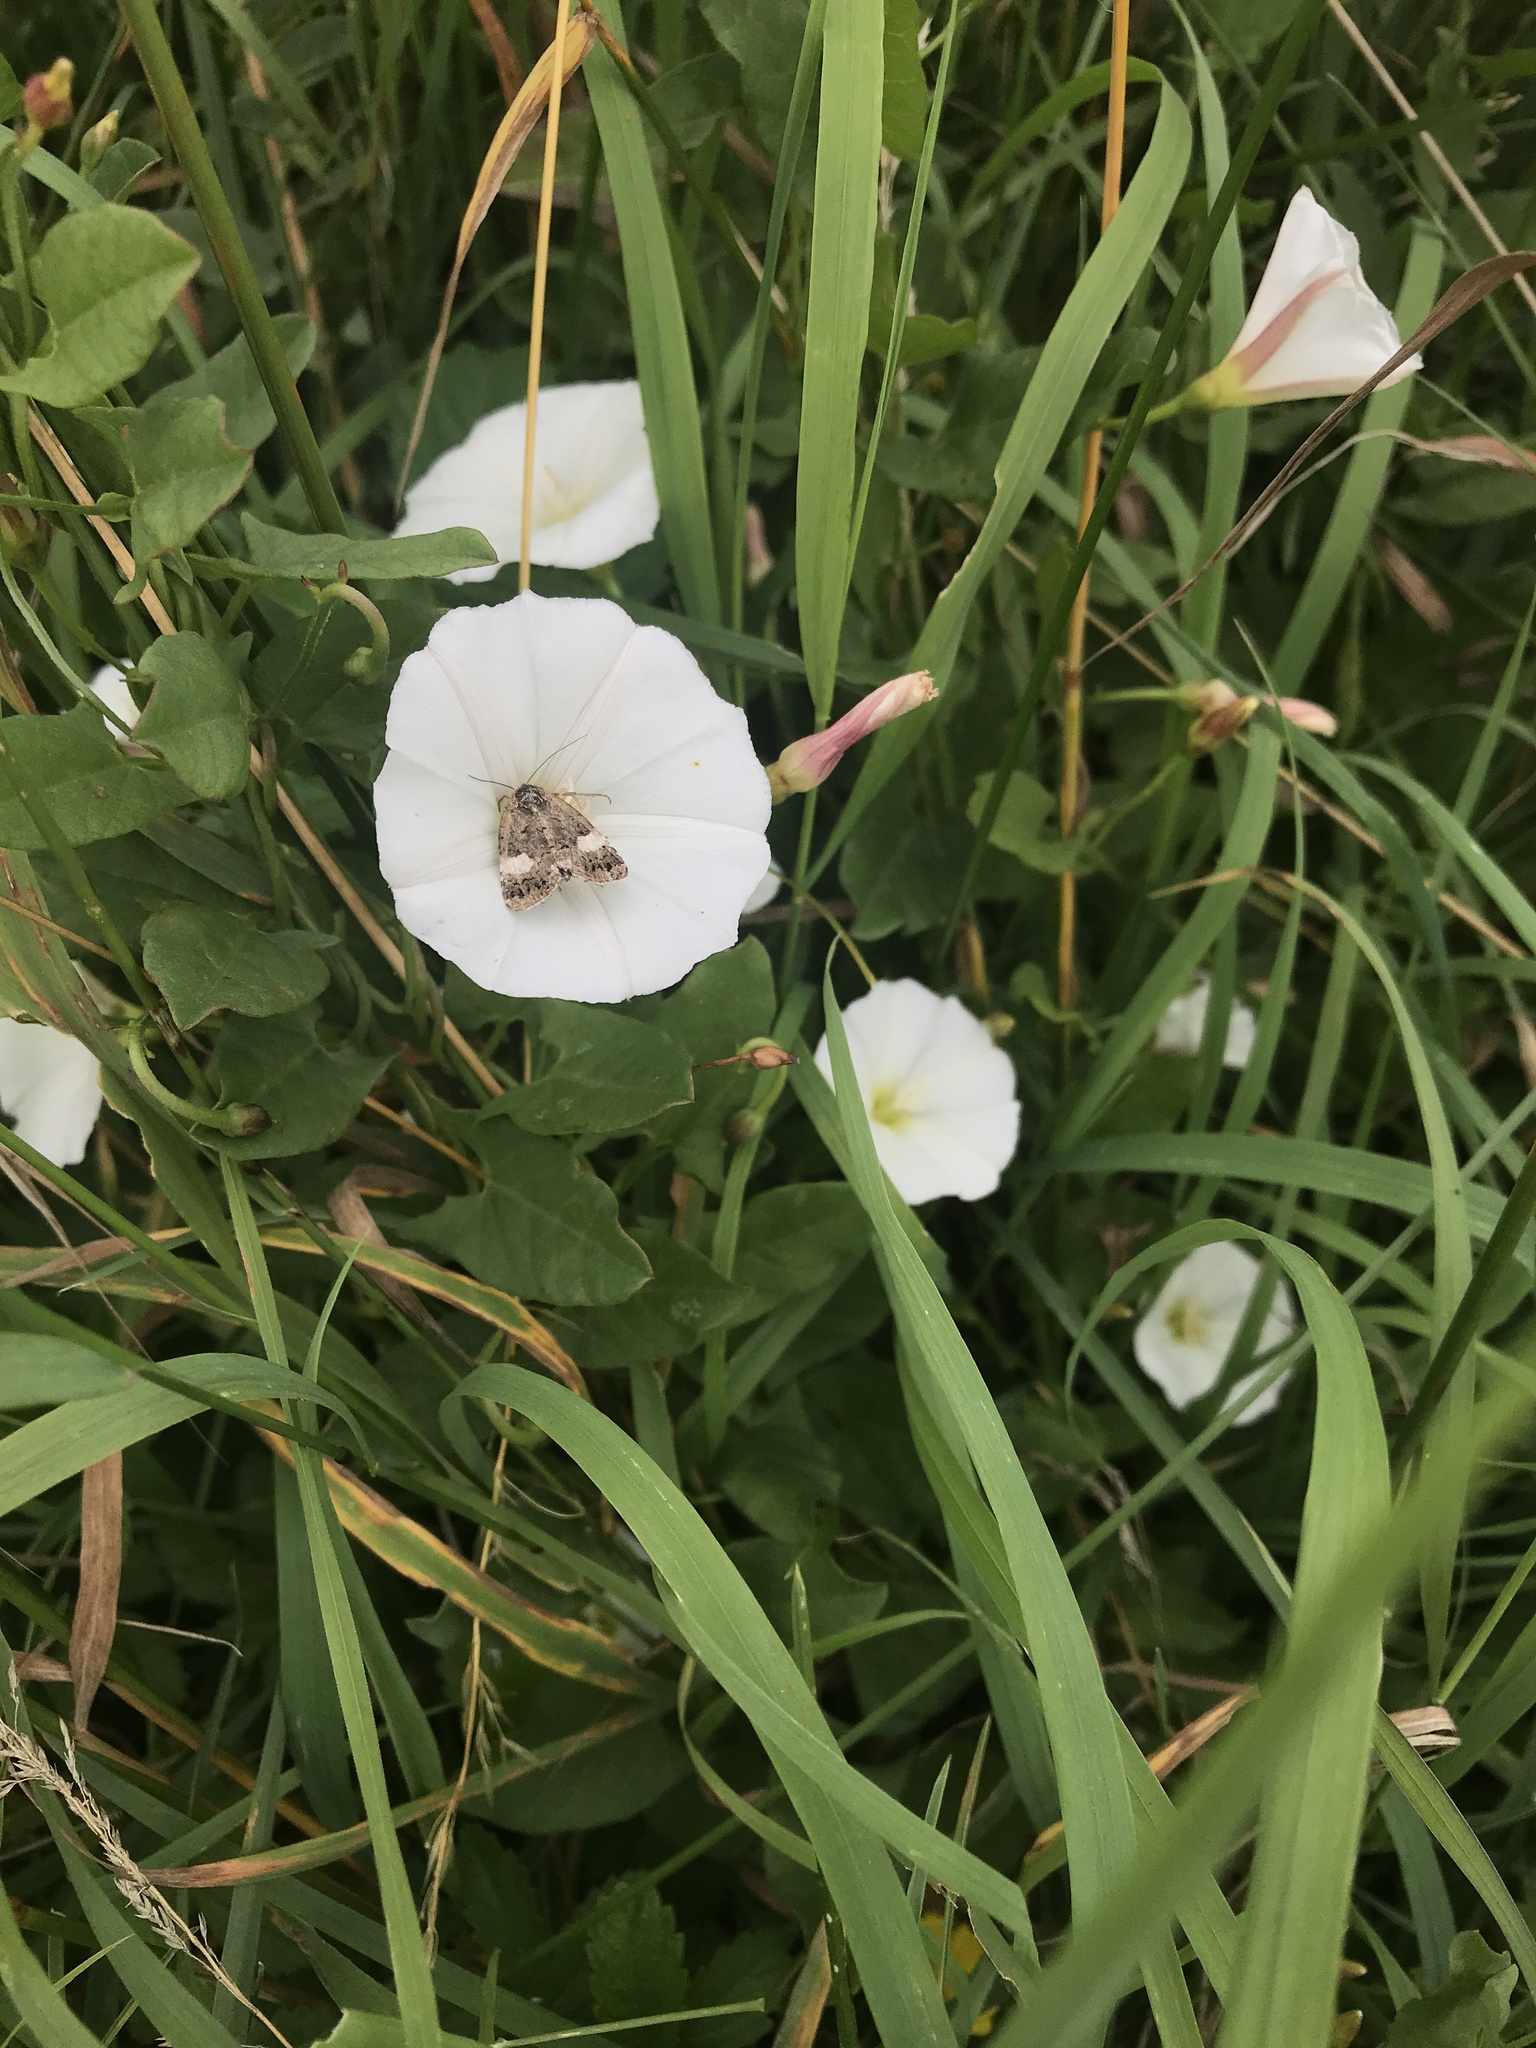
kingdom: Animalia
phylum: Arthropoda
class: Insecta
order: Lepidoptera
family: Erebidae
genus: Tyta
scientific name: Tyta luctuosa
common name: Four-spotted
